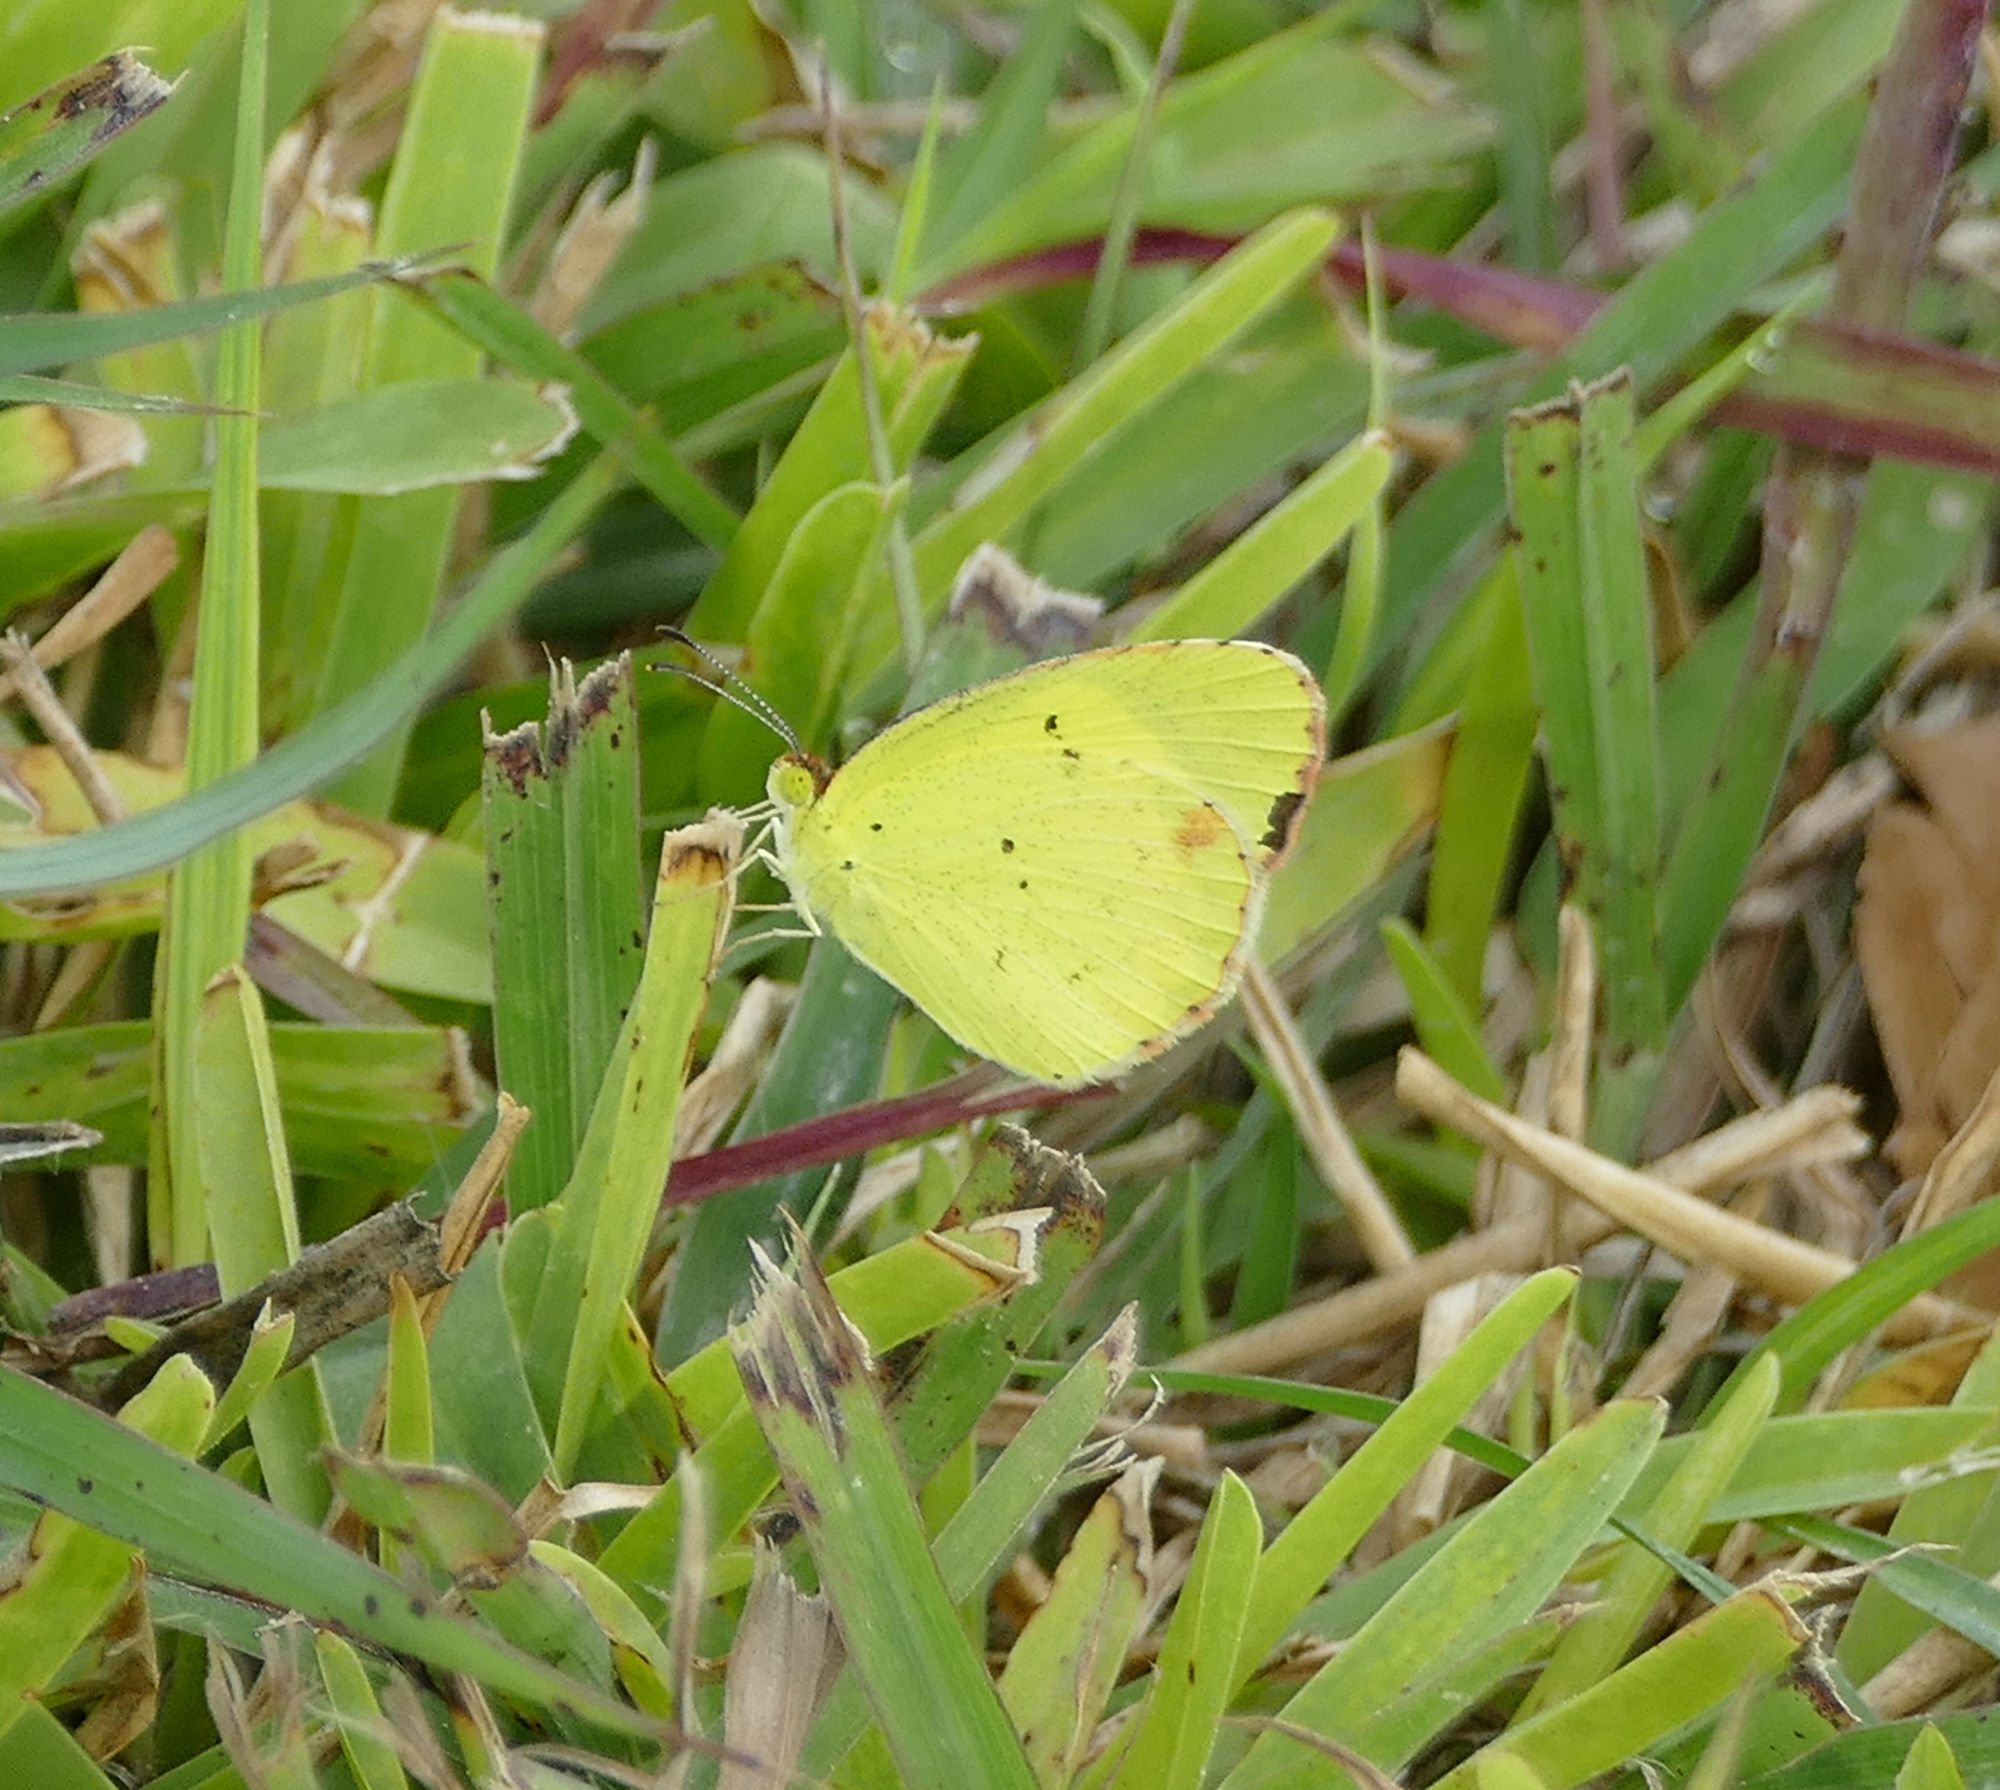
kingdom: Animalia
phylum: Arthropoda
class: Insecta
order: Lepidoptera
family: Pieridae
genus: Pyrisitia
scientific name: Pyrisitia lisa
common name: Little yellow
